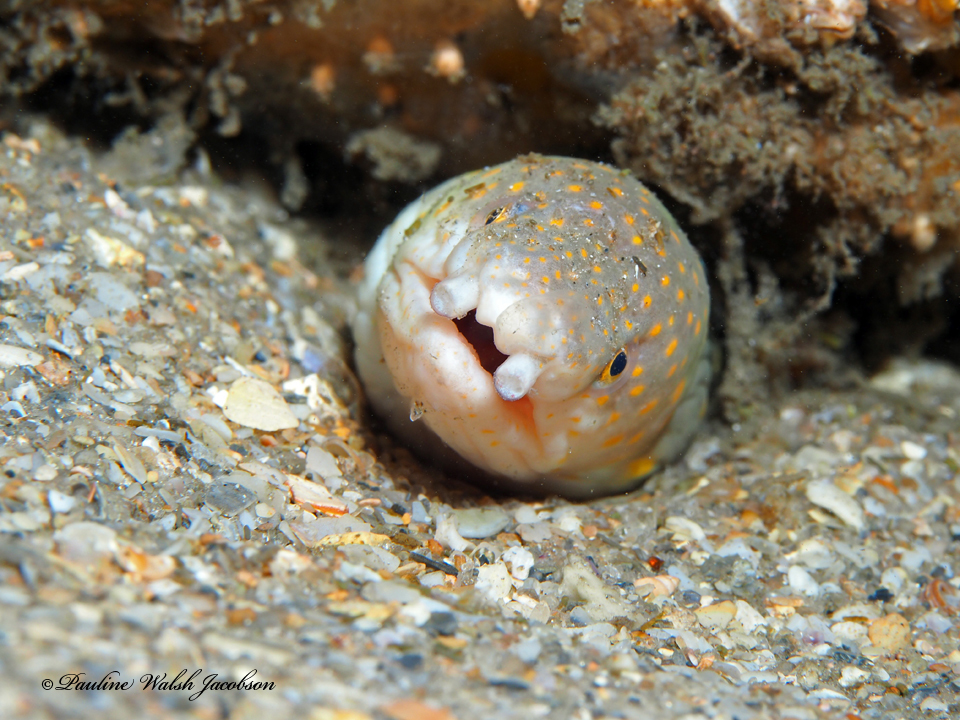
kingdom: Animalia
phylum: Chordata
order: Anguilliformes
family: Ophichthidae
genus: Myrichthys
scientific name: Myrichthys breviceps
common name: Sharptail eel
